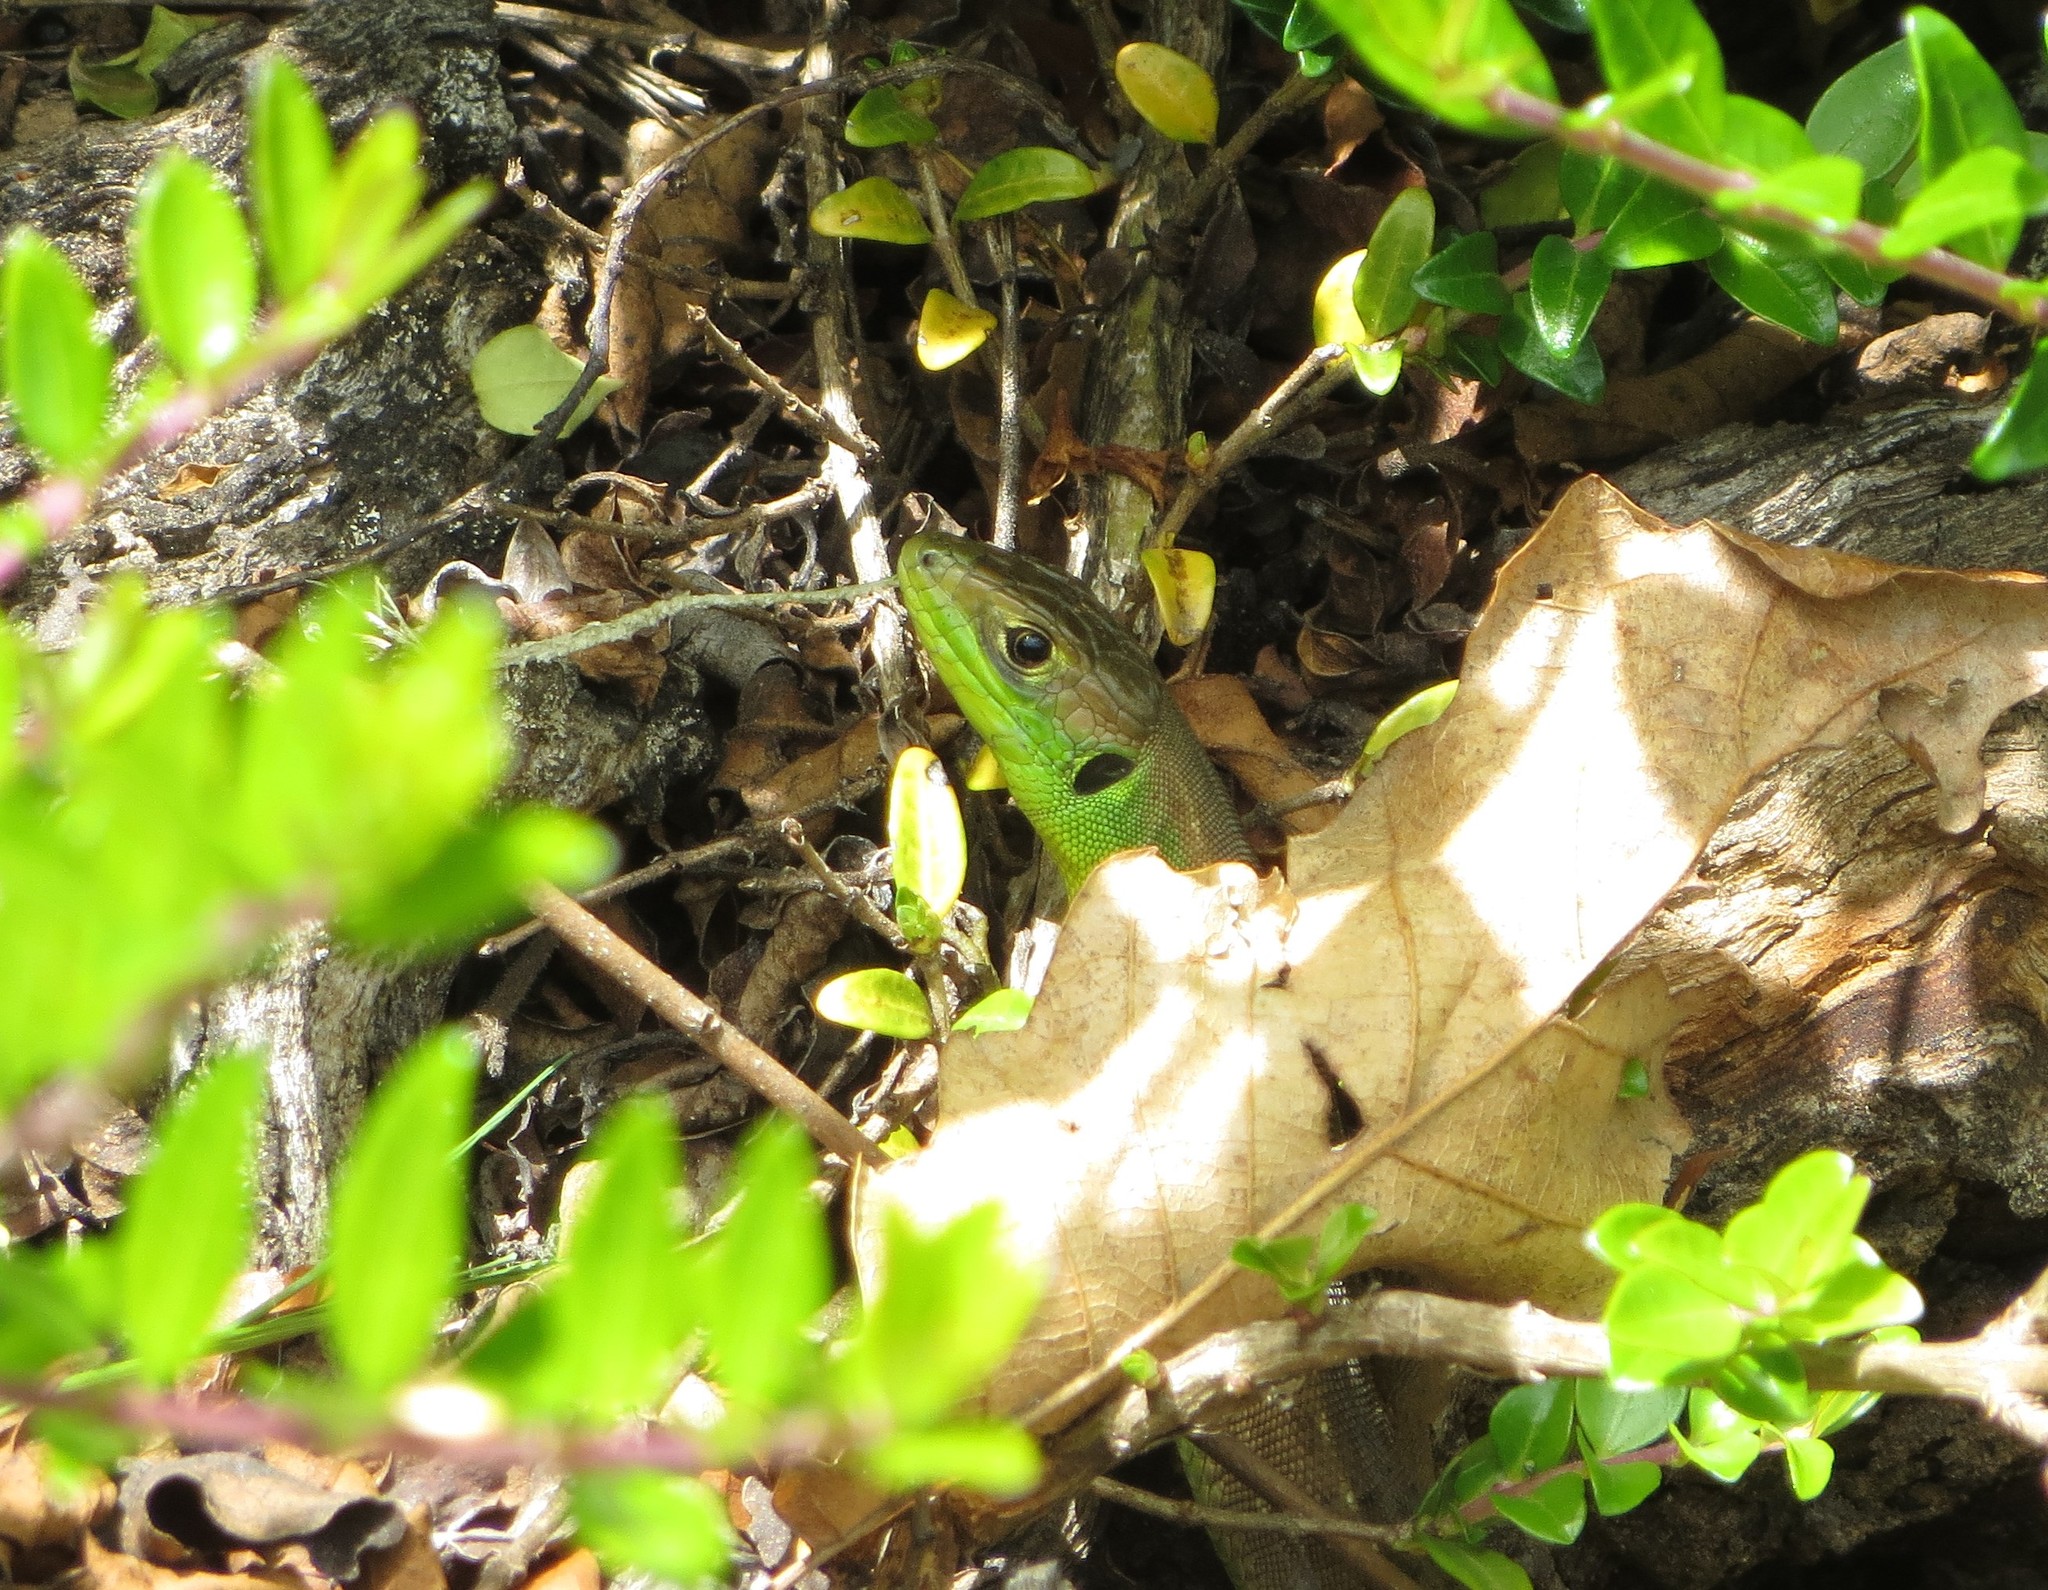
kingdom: Animalia
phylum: Chordata
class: Squamata
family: Lacertidae
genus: Lacerta
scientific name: Lacerta bilineata
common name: Western green lizard
